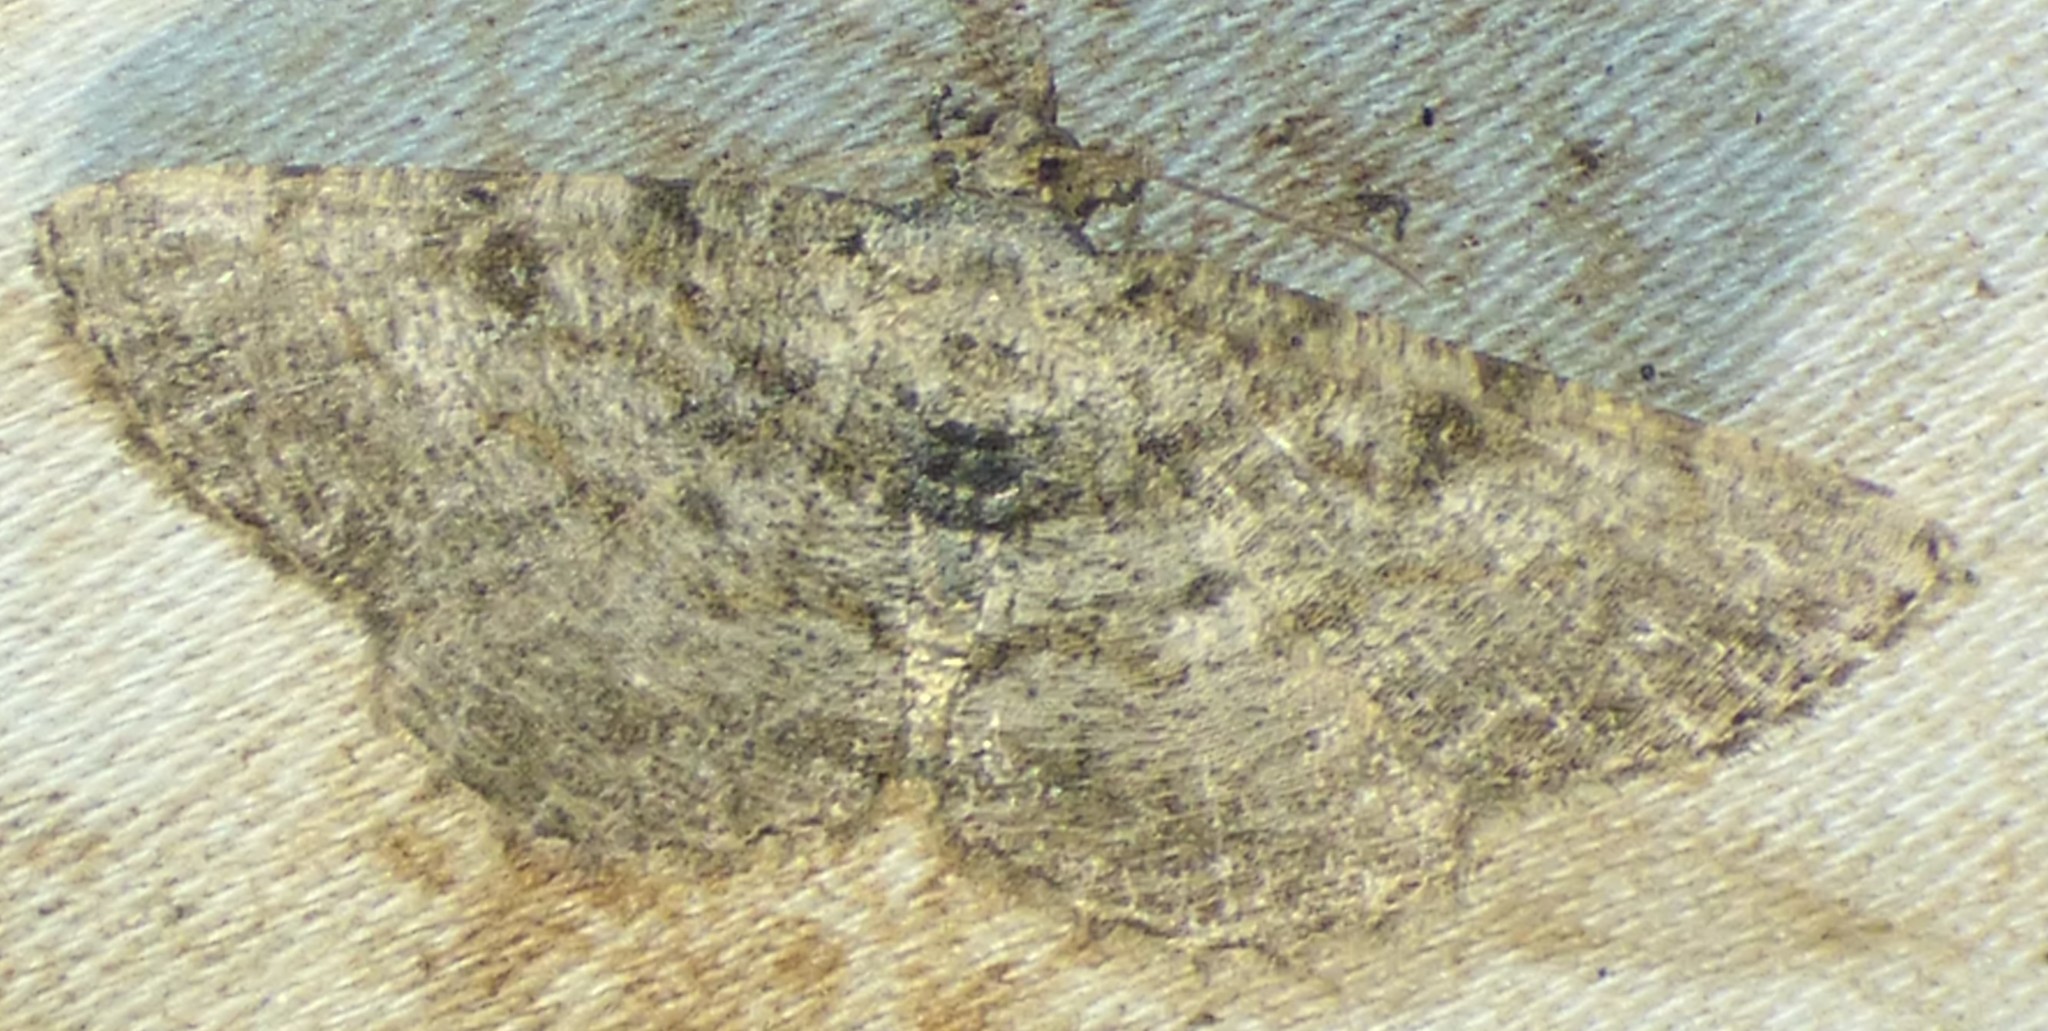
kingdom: Animalia
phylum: Arthropoda
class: Insecta
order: Lepidoptera
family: Geometridae
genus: Digrammia
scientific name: Digrammia gnophosaria
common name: Hollow-spotted angle
